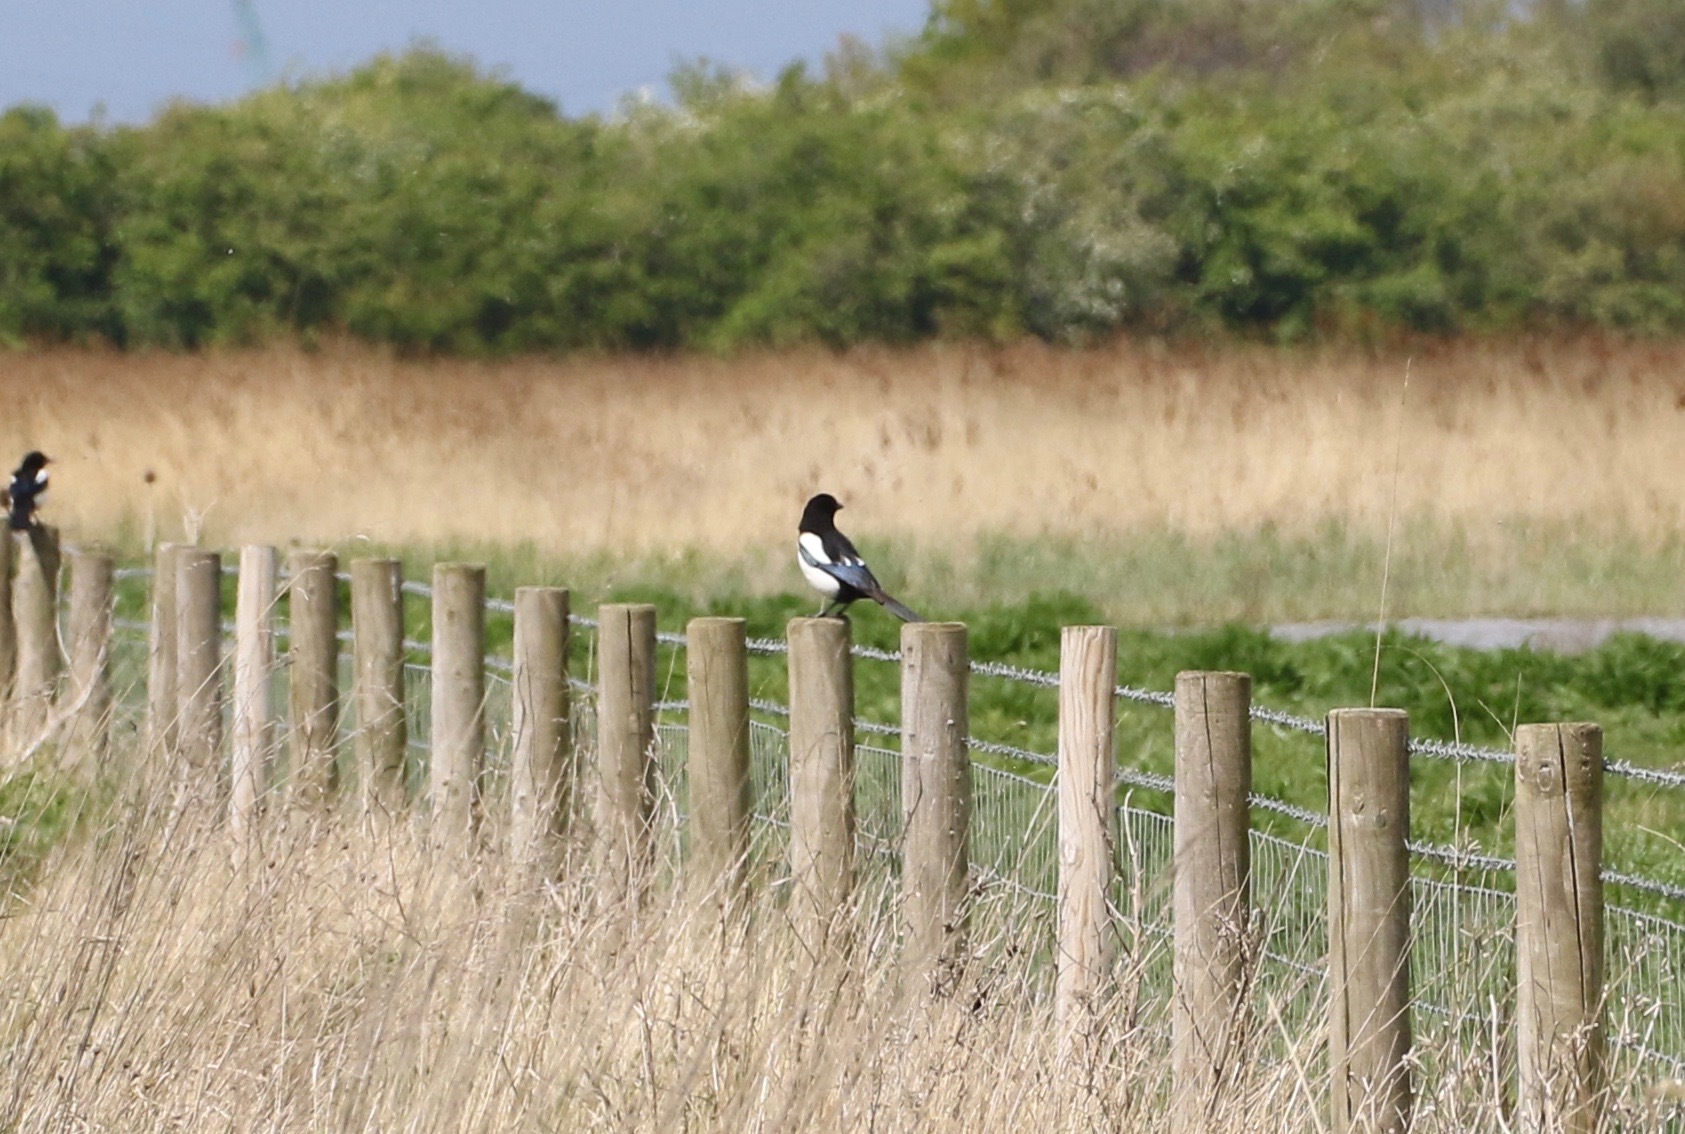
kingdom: Animalia
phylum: Chordata
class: Aves
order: Passeriformes
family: Corvidae
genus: Pica
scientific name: Pica pica
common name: Eurasian magpie
